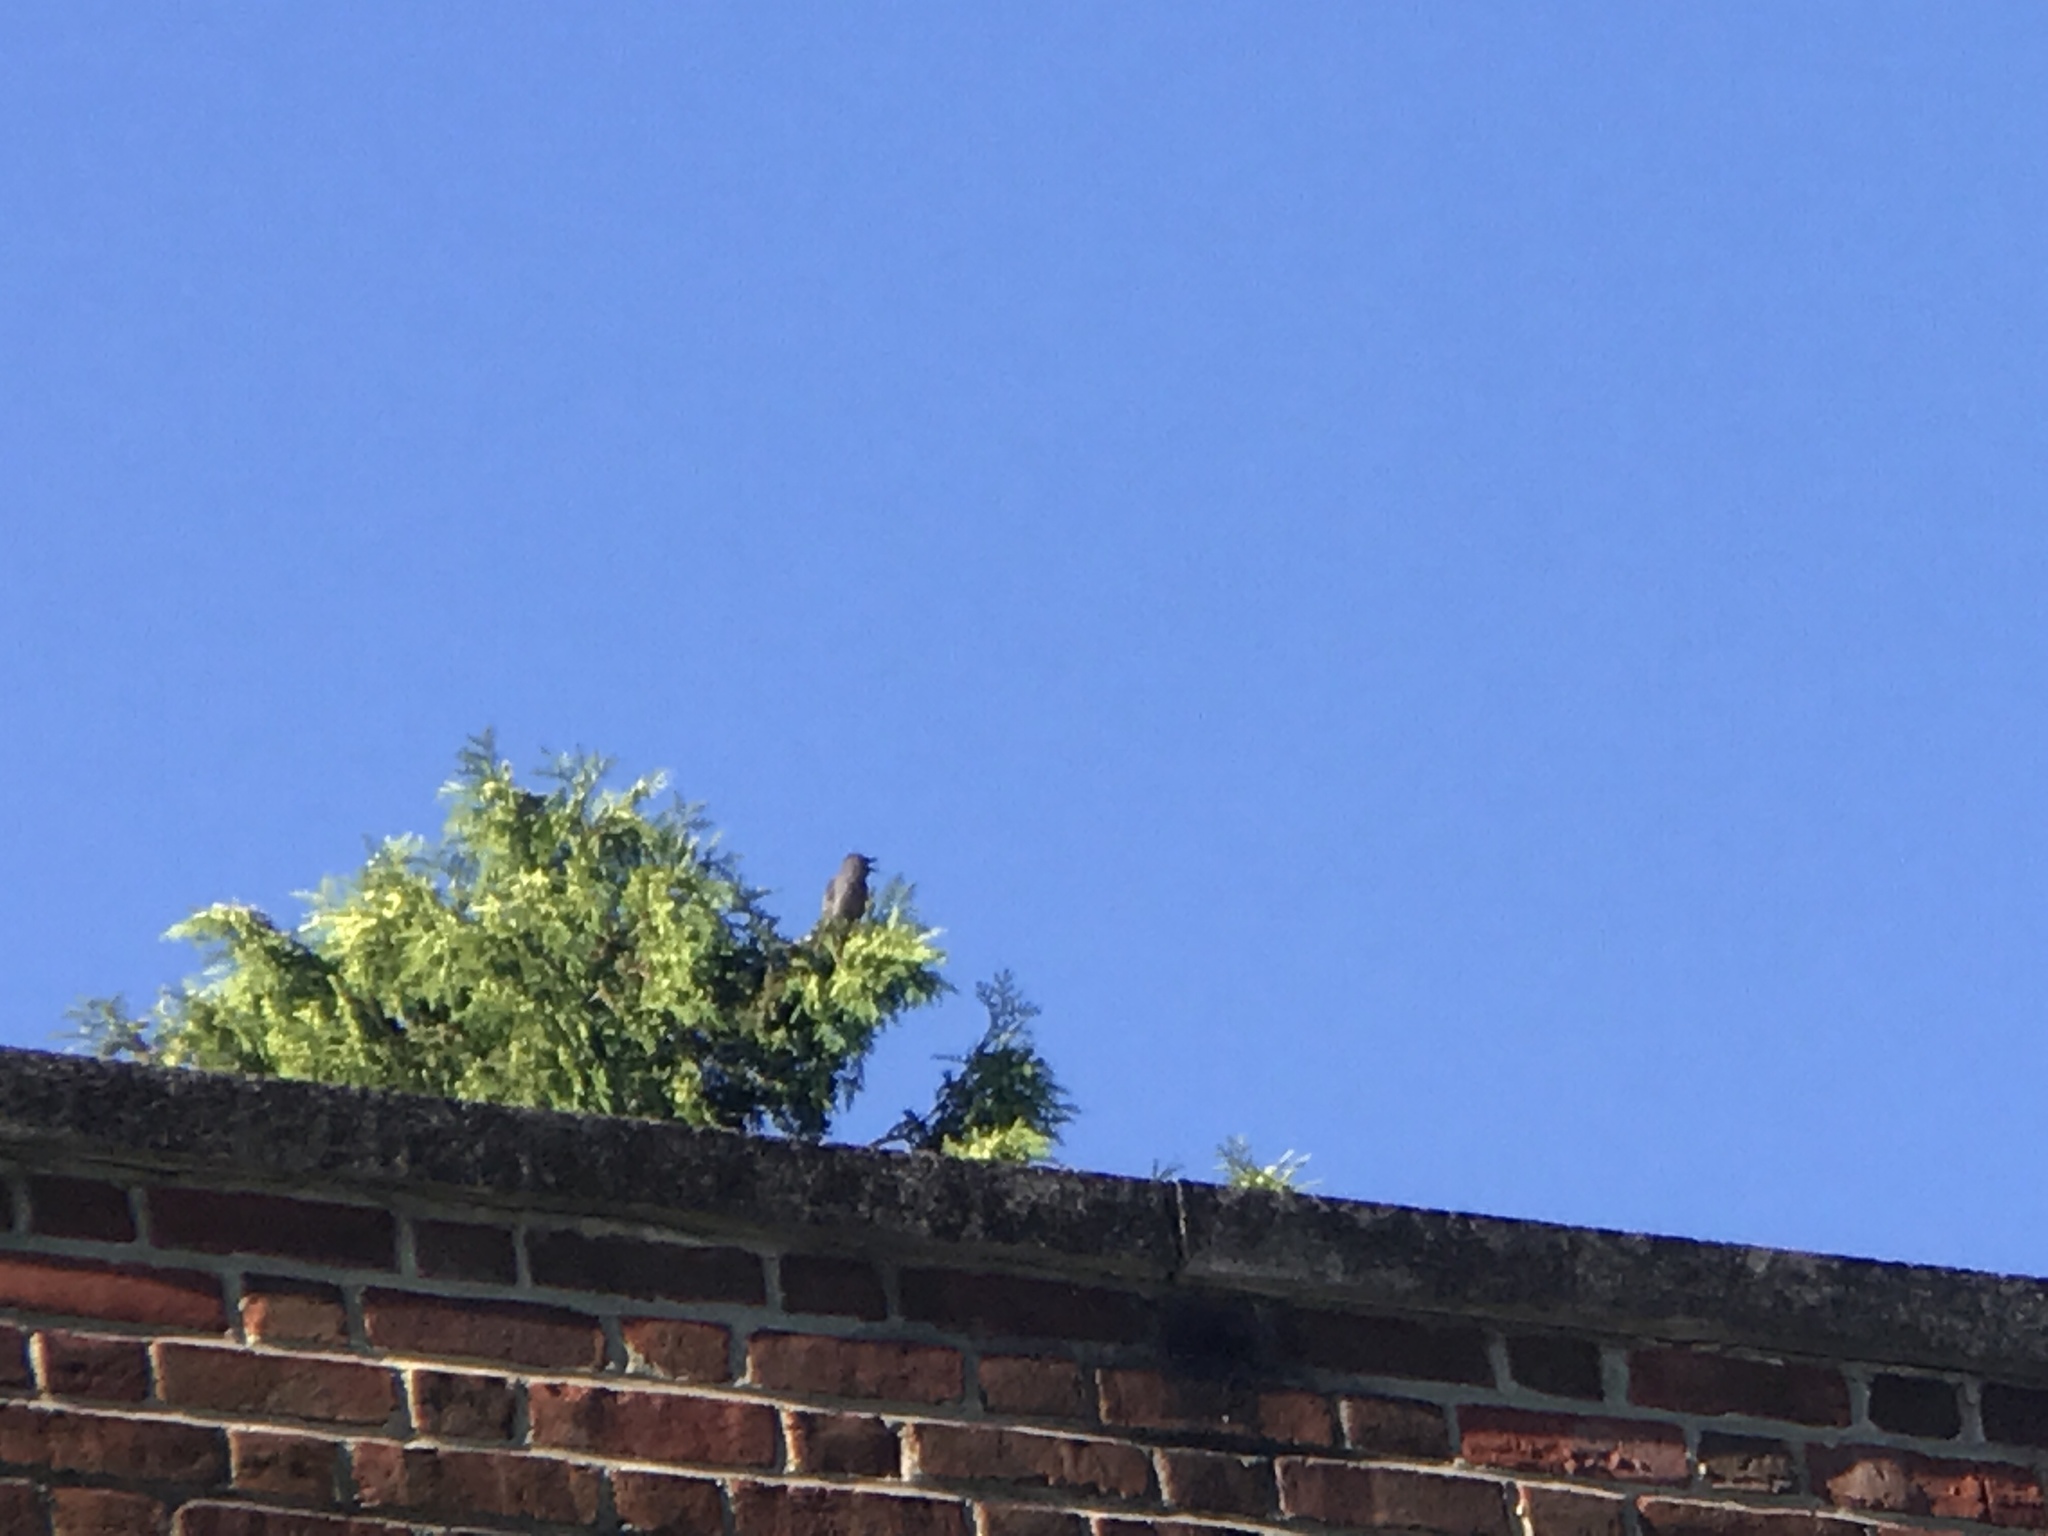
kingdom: Animalia
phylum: Chordata
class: Aves
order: Passeriformes
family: Mimidae
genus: Dumetella
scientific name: Dumetella carolinensis
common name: Gray catbird
